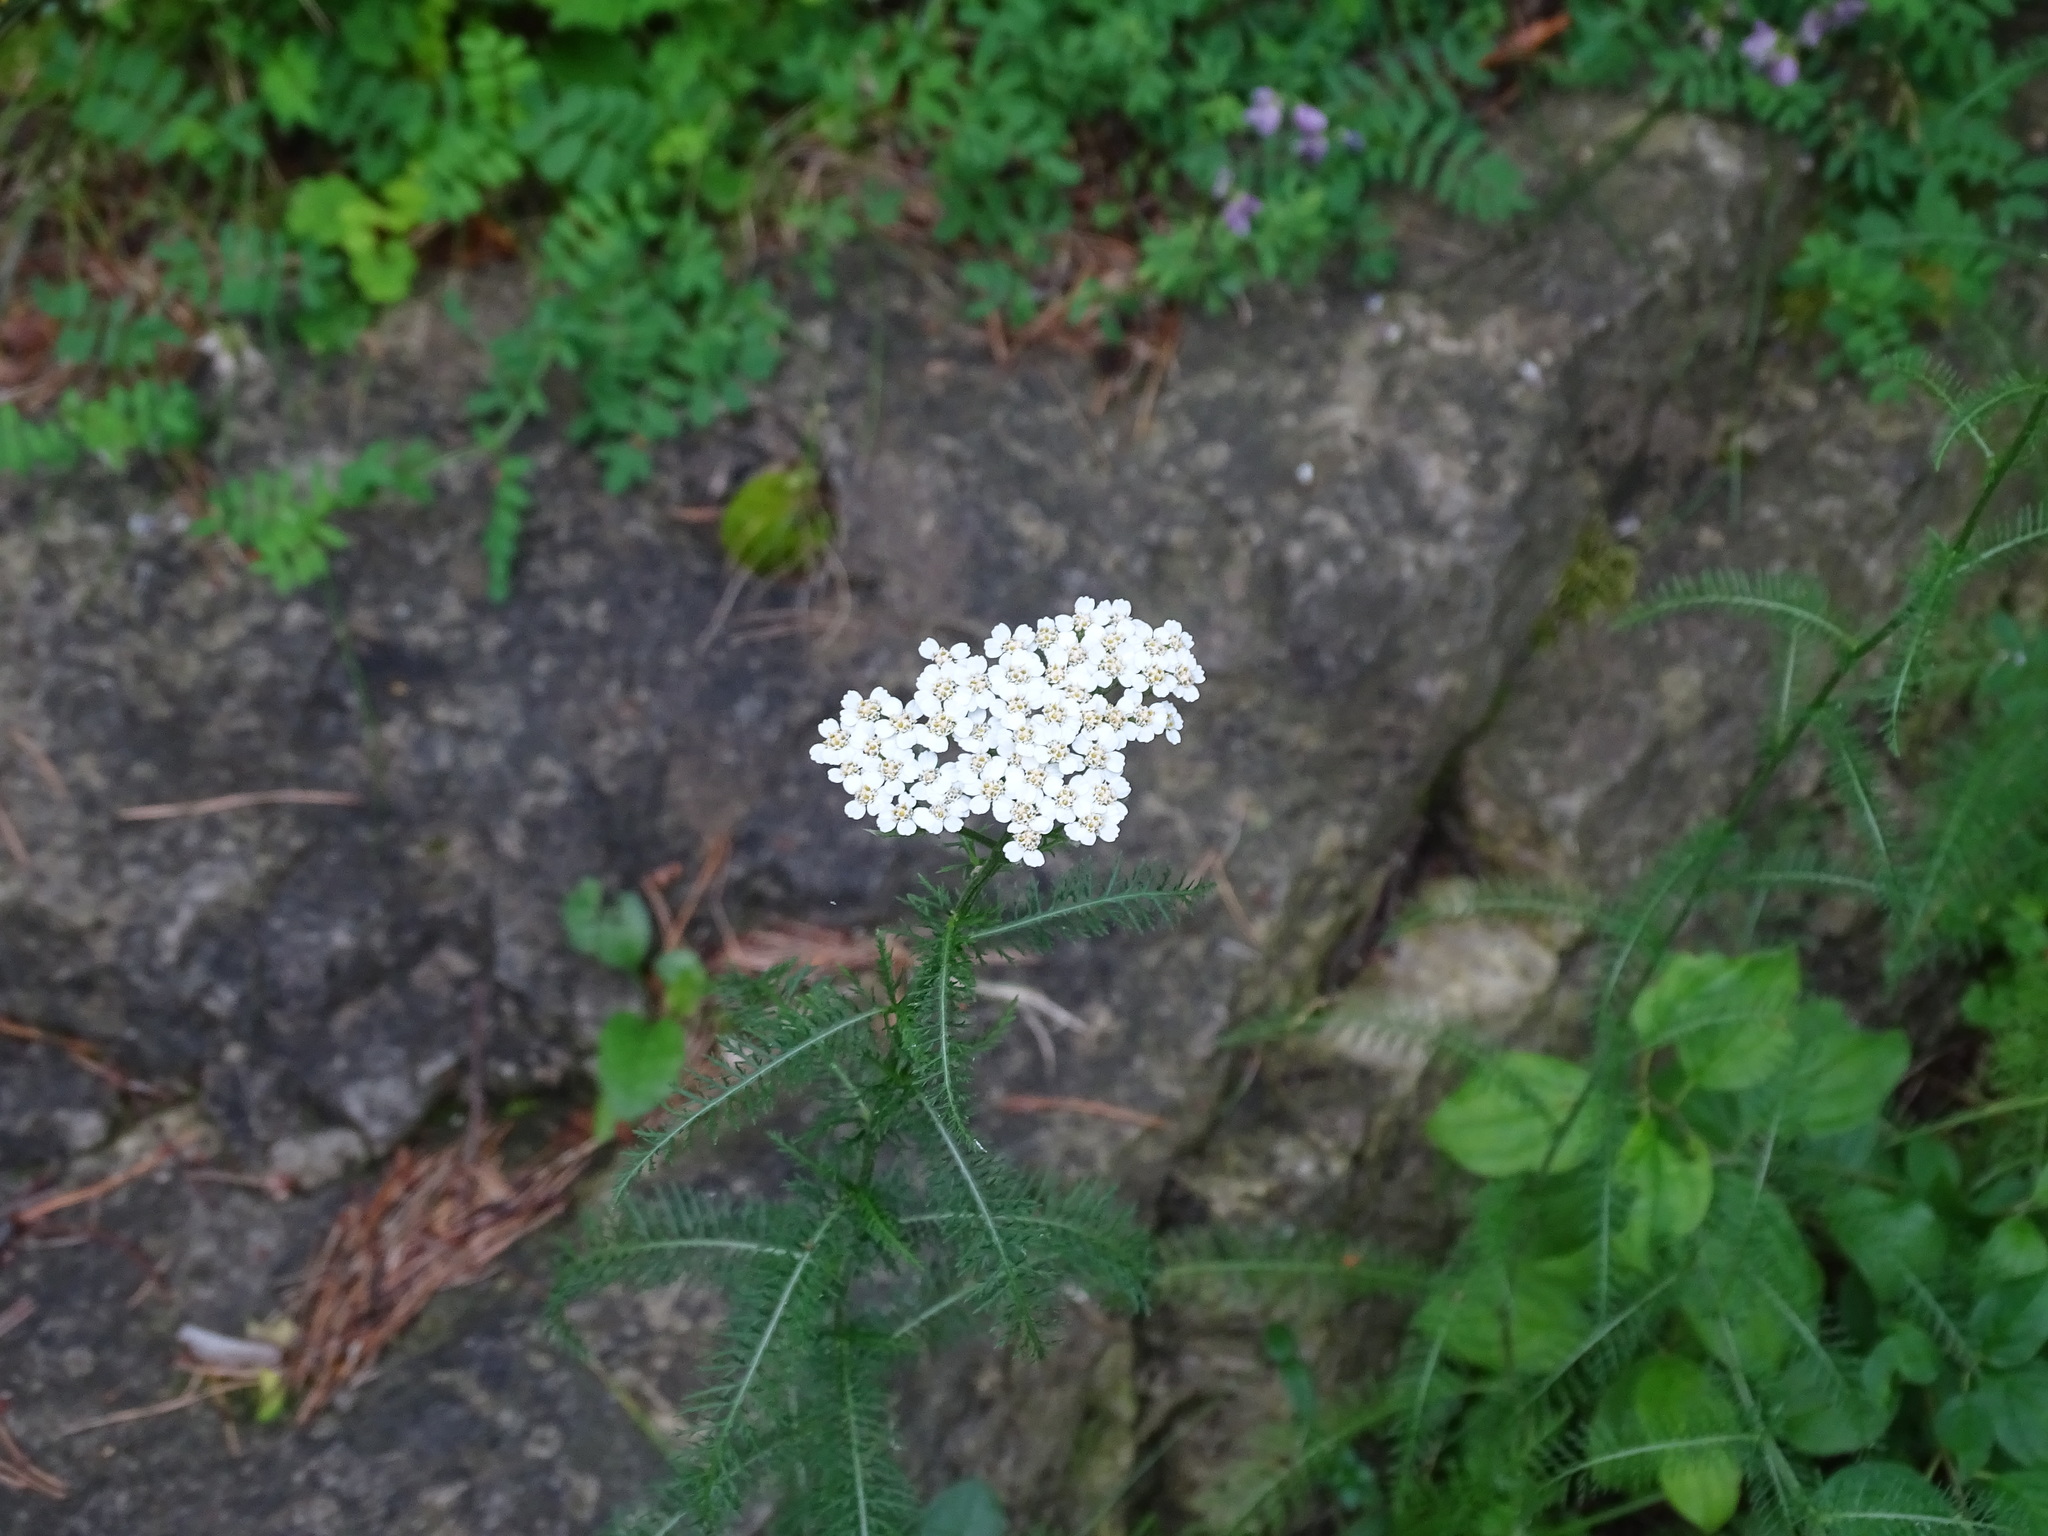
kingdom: Plantae
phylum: Tracheophyta
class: Magnoliopsida
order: Asterales
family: Asteraceae
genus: Achillea
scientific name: Achillea millefolium
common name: Yarrow
